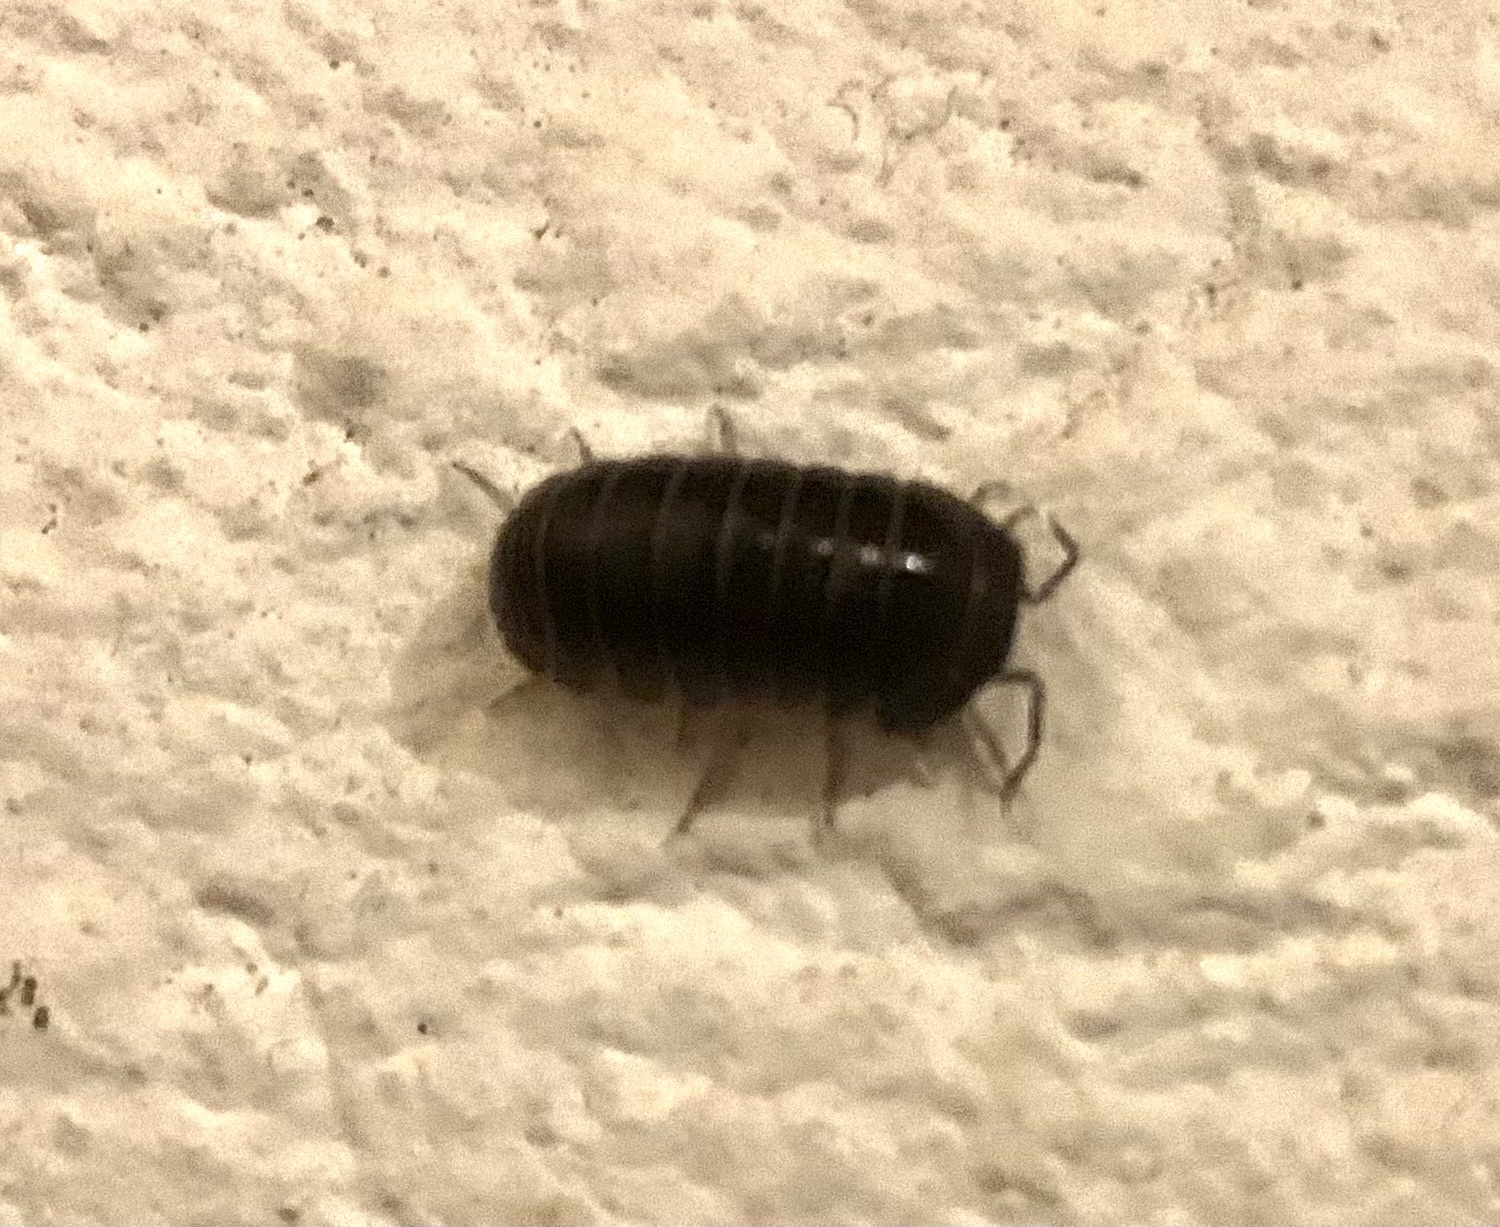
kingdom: Animalia
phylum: Arthropoda
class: Malacostraca
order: Isopoda
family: Armadillidae
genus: Armadillo
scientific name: Armadillo officinalis
